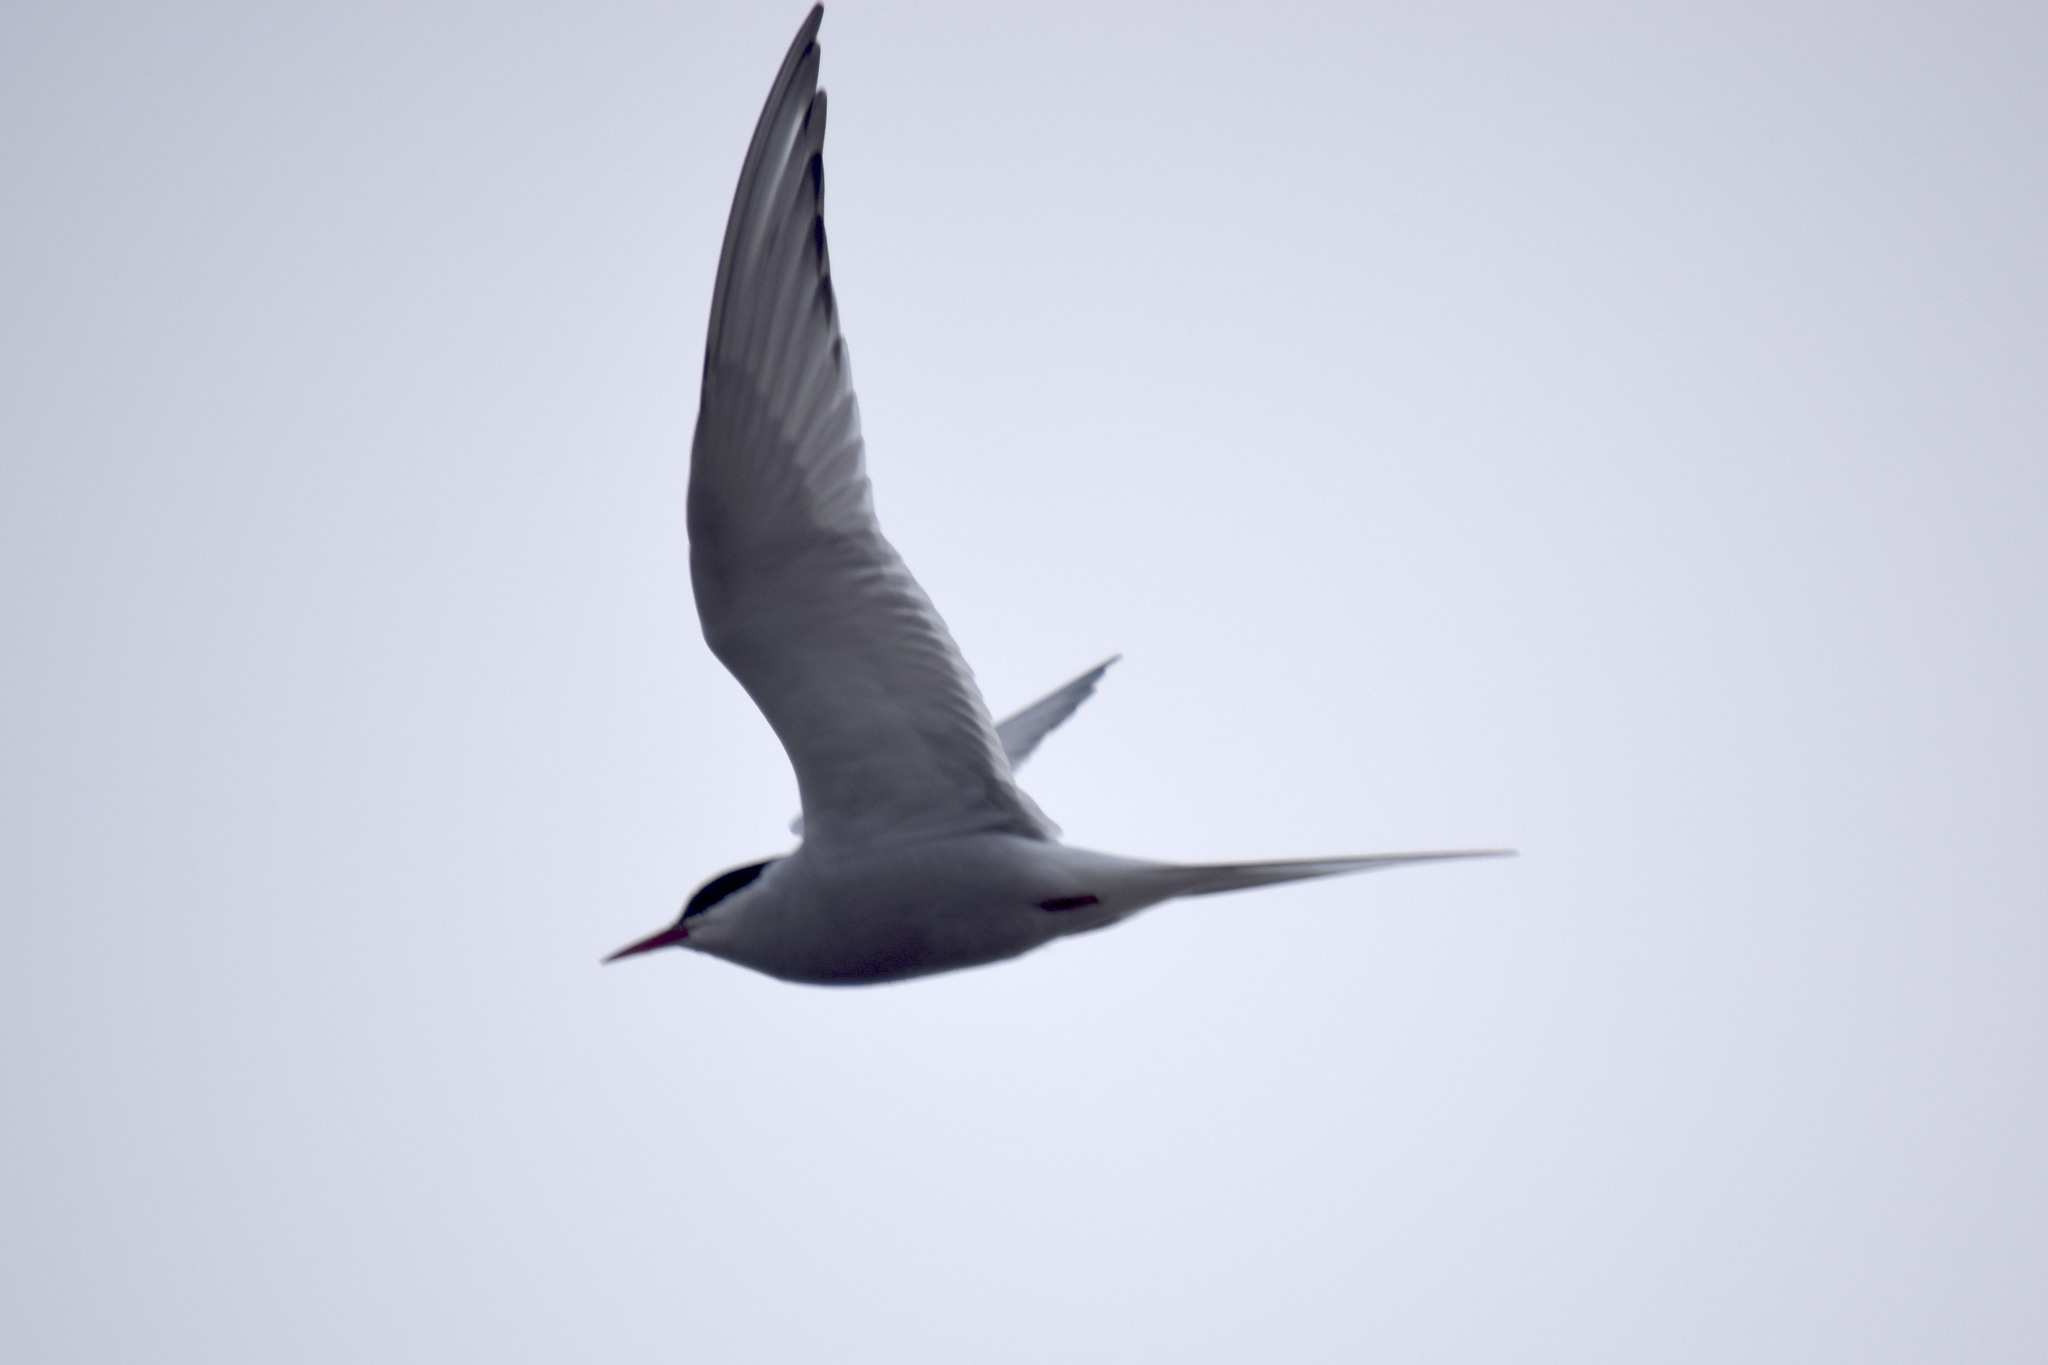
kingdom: Animalia
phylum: Chordata
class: Aves
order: Charadriiformes
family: Laridae
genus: Sterna
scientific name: Sterna paradisaea
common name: Arctic tern
